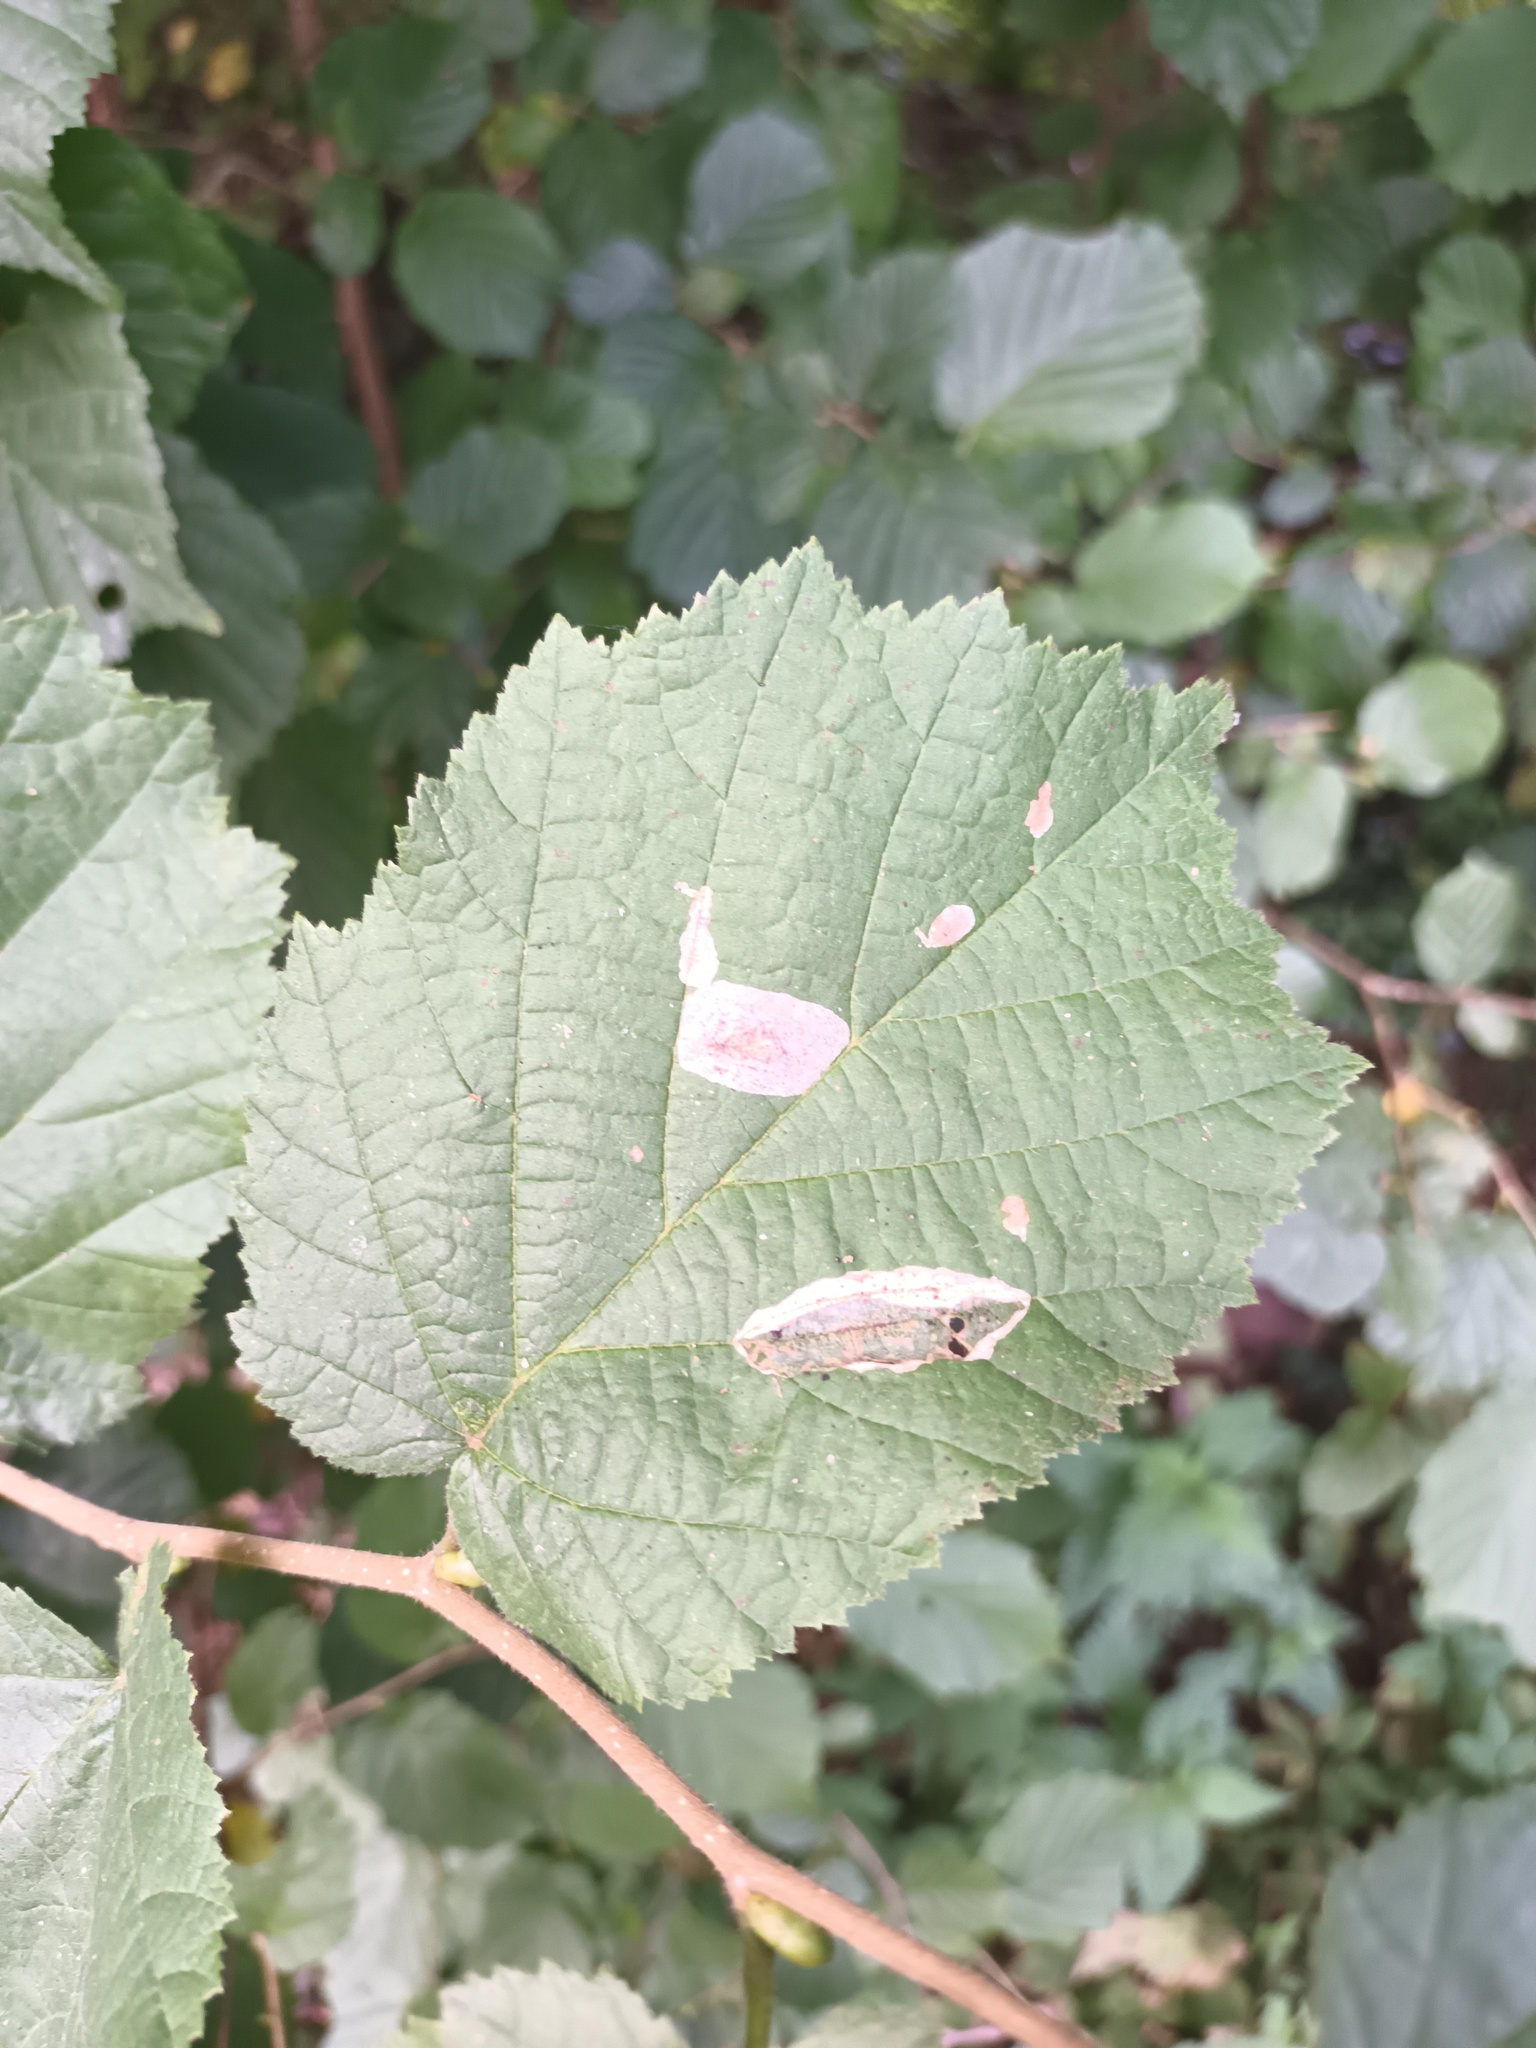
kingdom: Animalia
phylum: Arthropoda
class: Insecta
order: Lepidoptera
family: Gracillariidae
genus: Phyllonorycter
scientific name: Phyllonorycter coryli
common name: Nut-leaf blister moth
